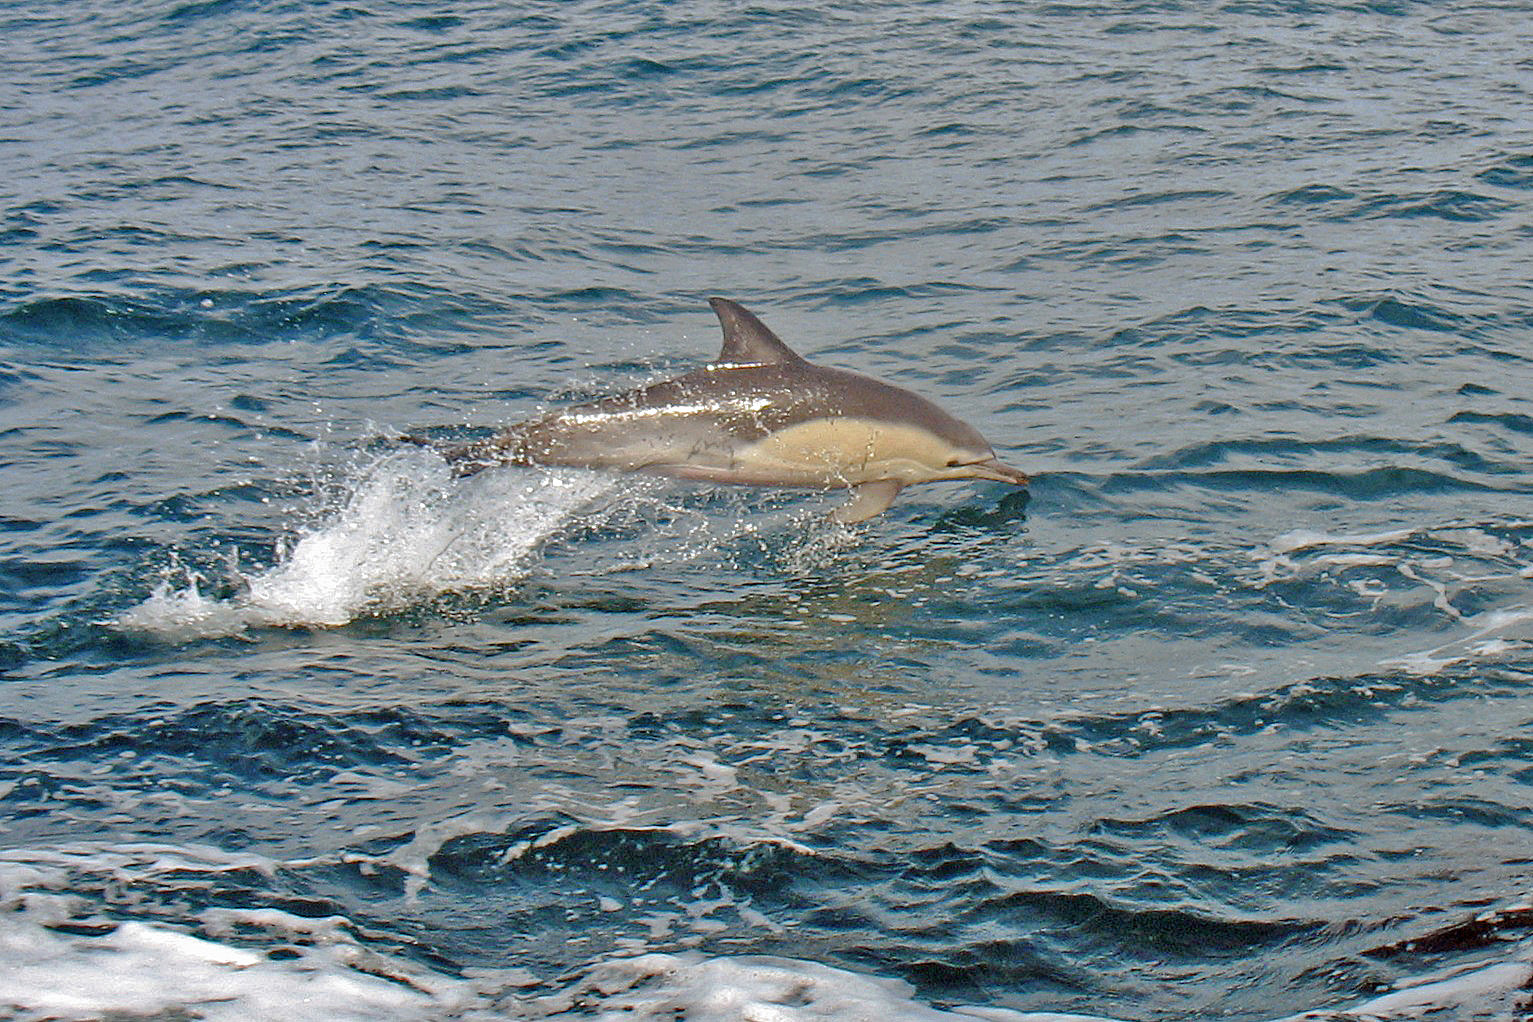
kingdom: Animalia
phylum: Chordata
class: Mammalia
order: Cetacea
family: Delphinidae
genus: Delphinus
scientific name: Delphinus delphis
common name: Common dolphin
